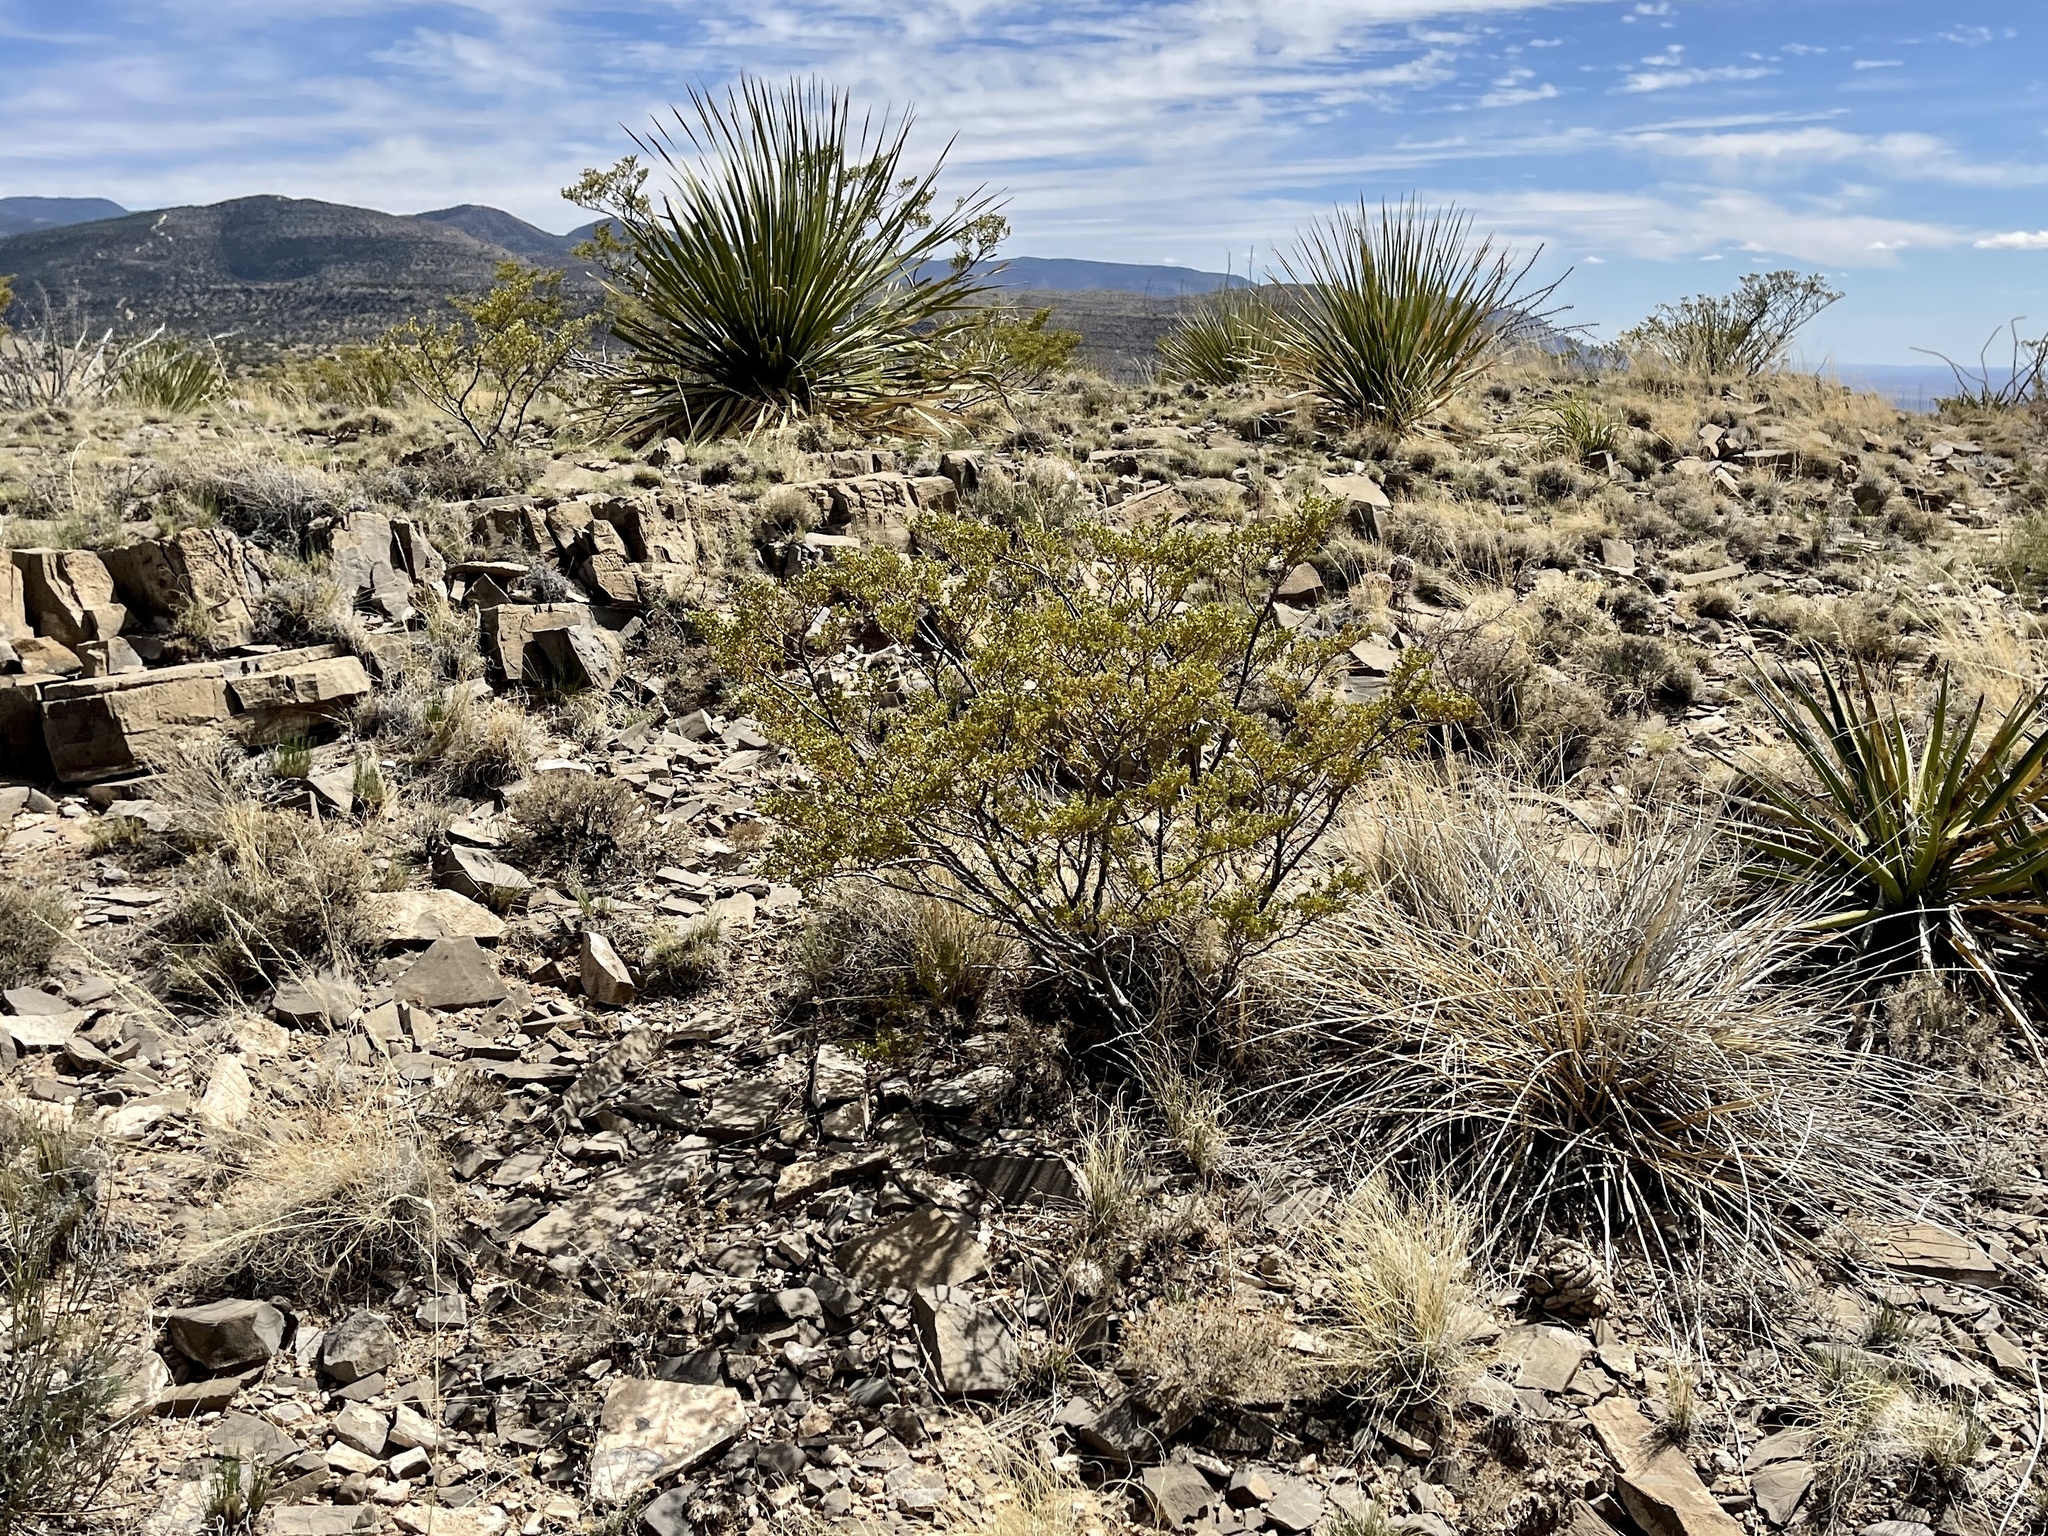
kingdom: Plantae
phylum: Tracheophyta
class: Magnoliopsida
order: Zygophyllales
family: Zygophyllaceae
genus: Larrea
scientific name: Larrea tridentata
